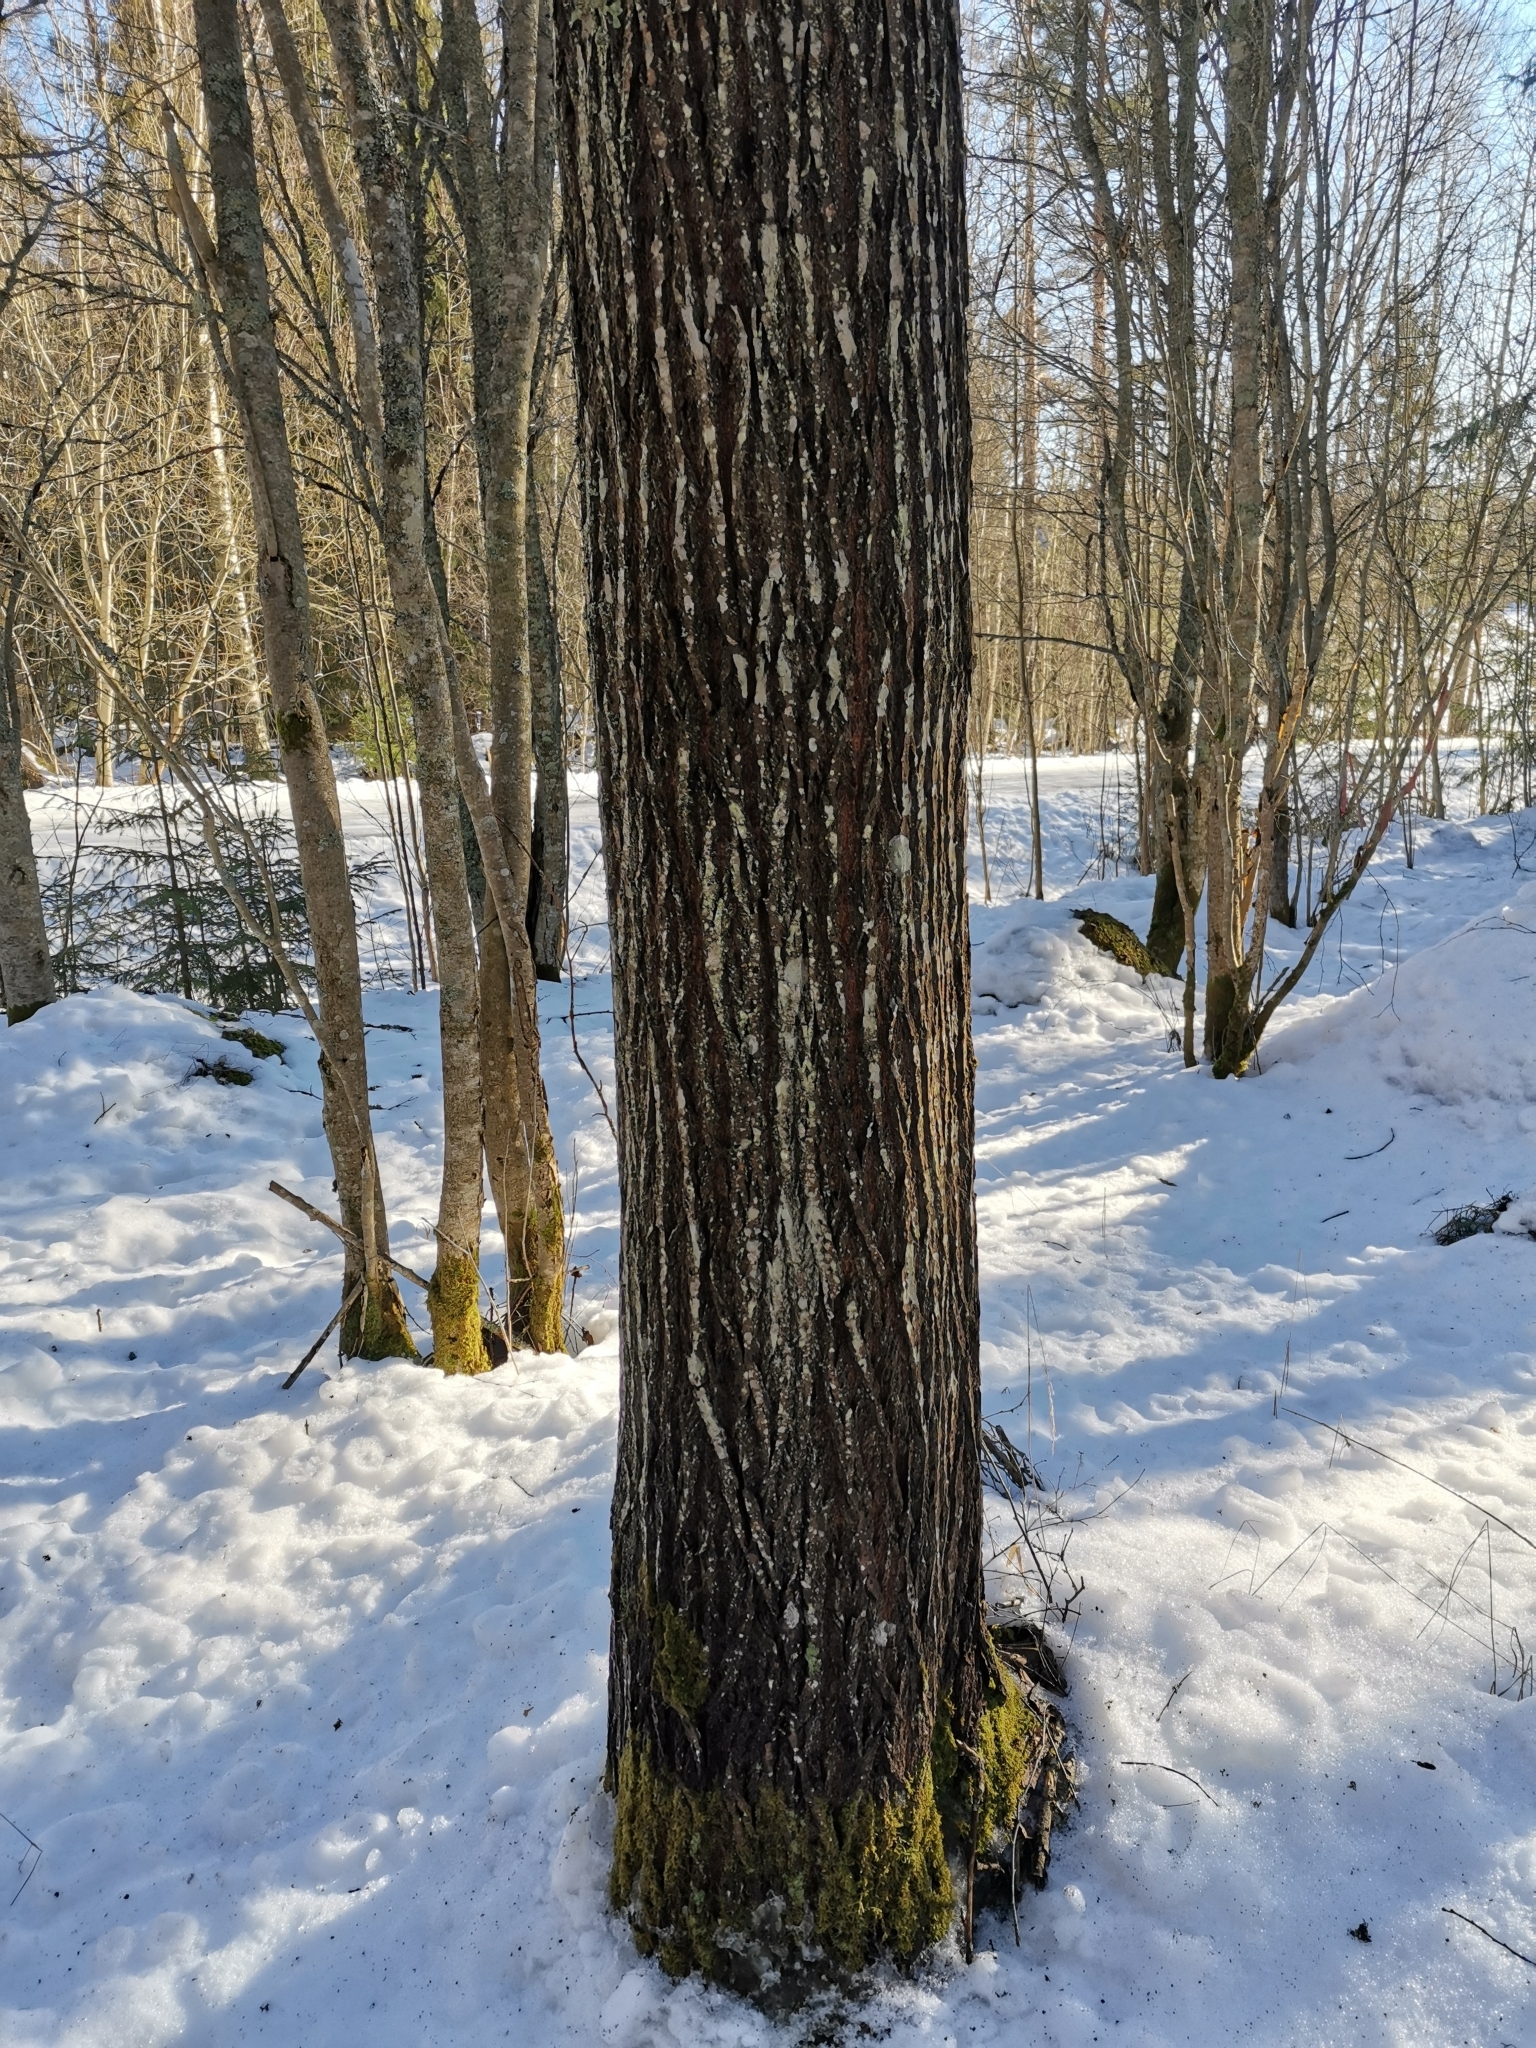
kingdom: Plantae
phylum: Tracheophyta
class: Magnoliopsida
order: Malpighiales
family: Salicaceae
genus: Salix
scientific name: Salix caprea
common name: Goat willow
